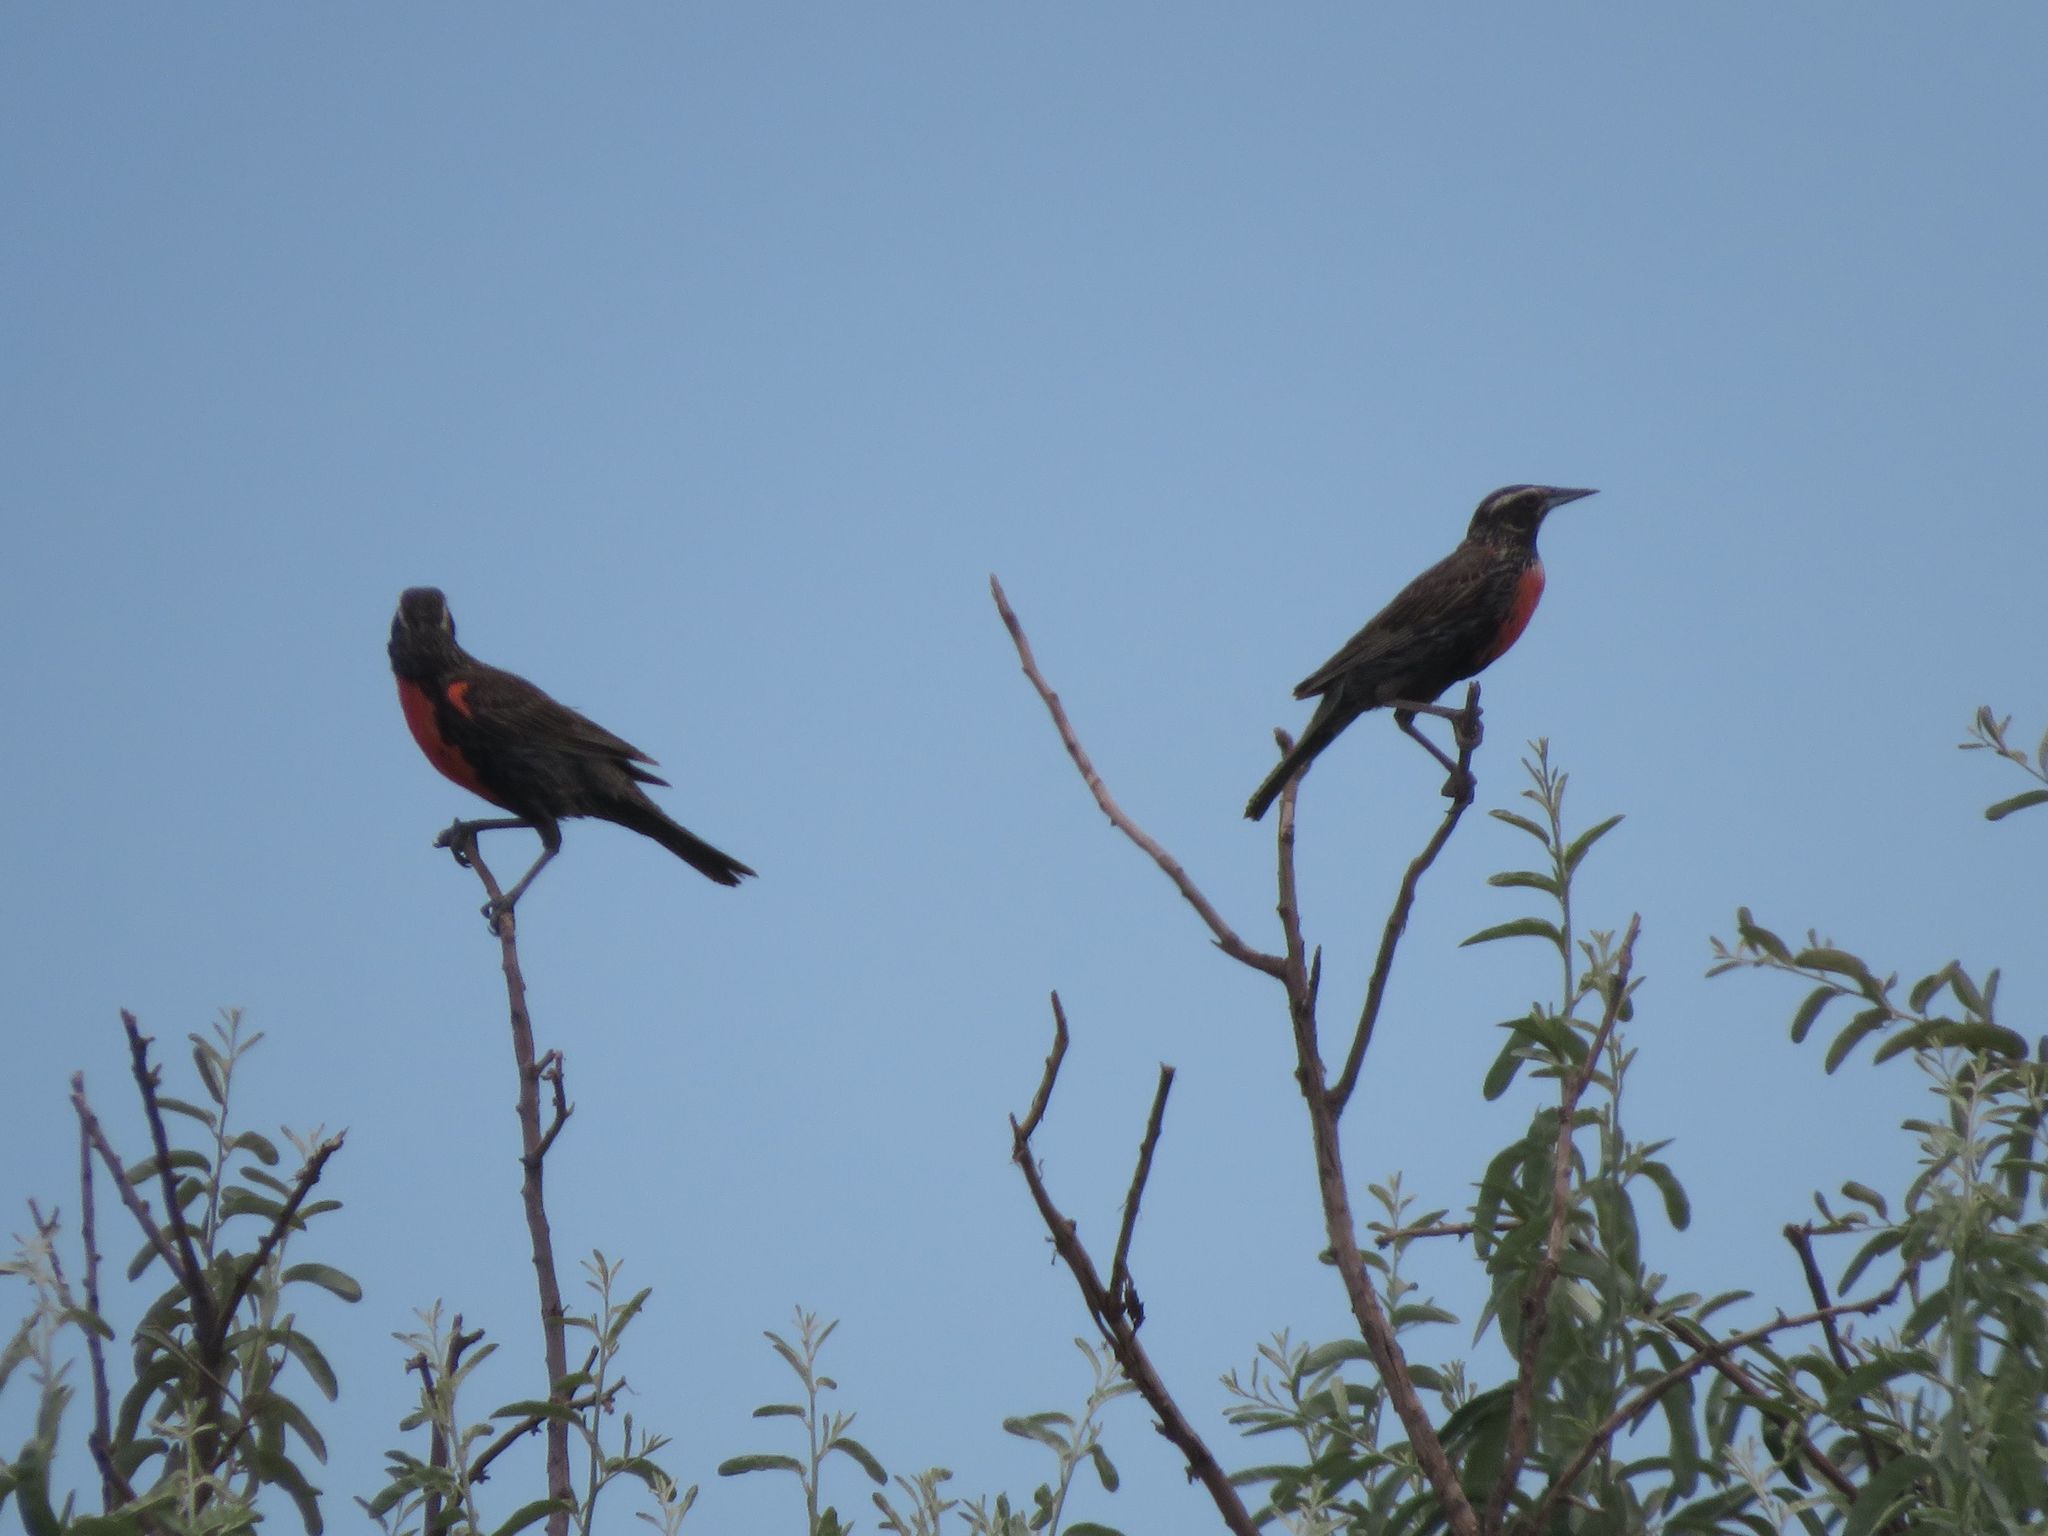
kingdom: Animalia
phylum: Chordata
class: Aves
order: Passeriformes
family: Icteridae
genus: Sturnella
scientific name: Sturnella loyca
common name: Long-tailed meadowlark
